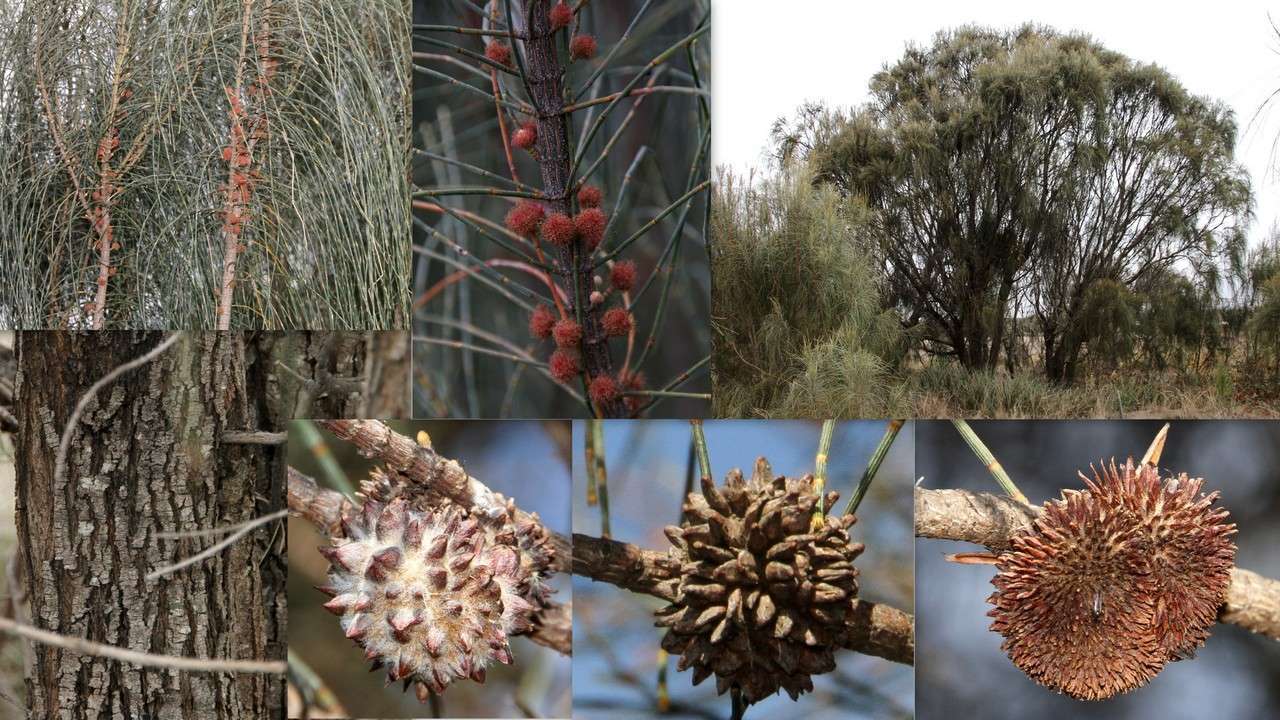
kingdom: Plantae
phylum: Tracheophyta
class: Magnoliopsida
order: Fagales
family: Casuarinaceae
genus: Allocasuarina
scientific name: Allocasuarina verticillata
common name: Drooping she-oak
